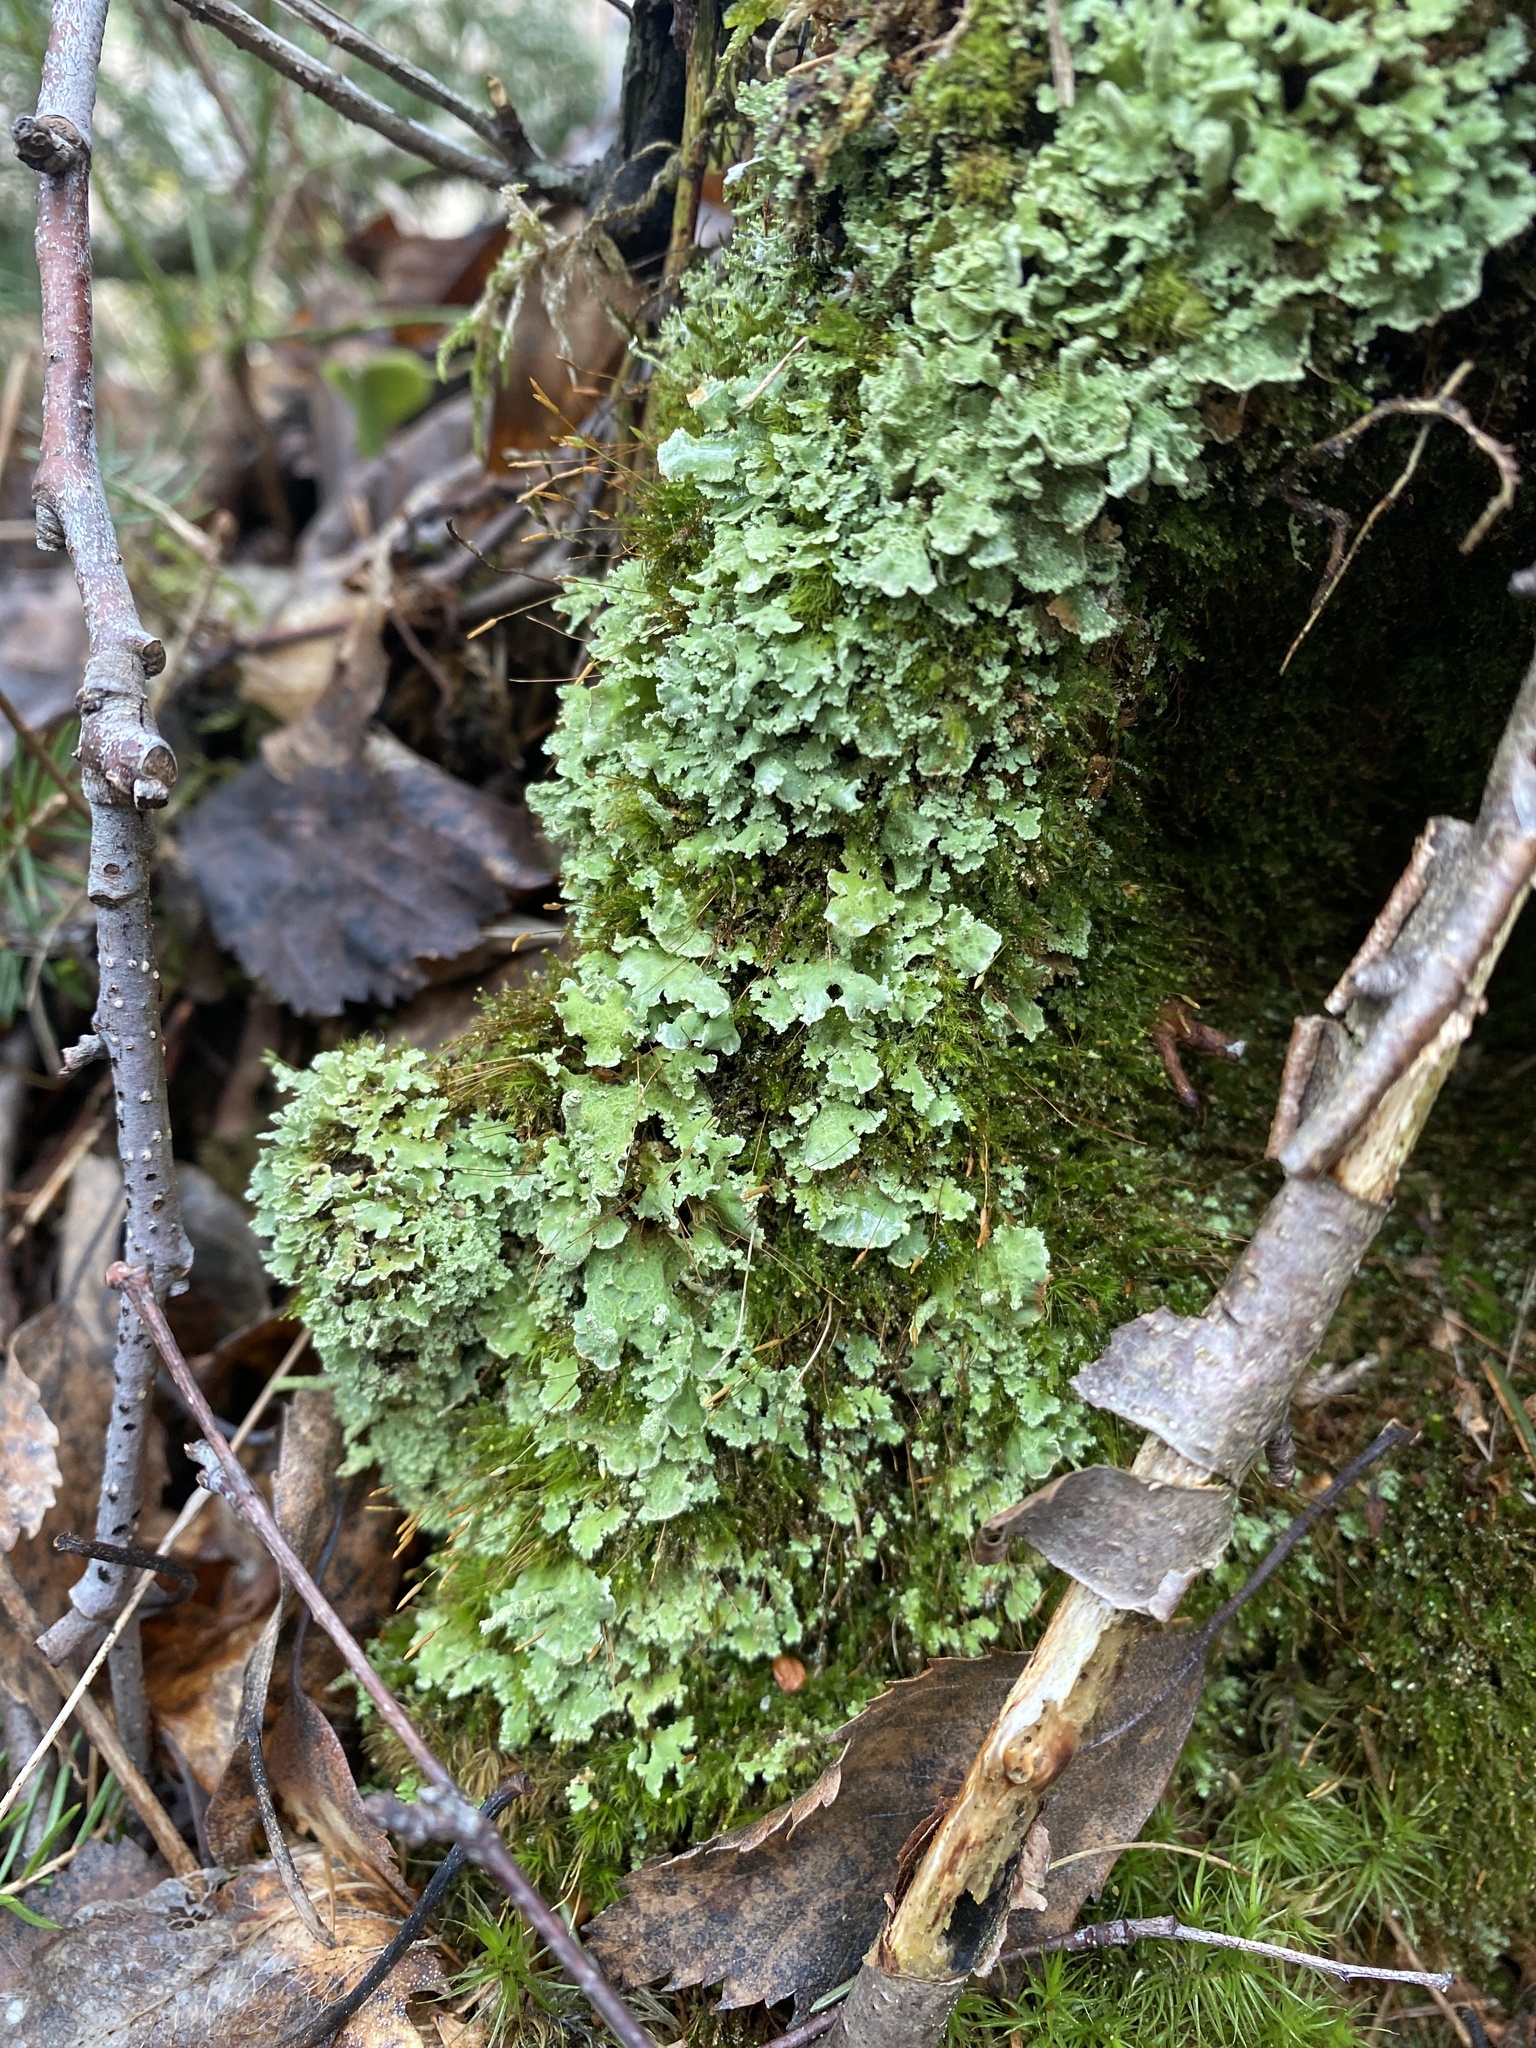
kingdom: Fungi
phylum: Ascomycota
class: Lecanoromycetes
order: Lecanorales
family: Cladoniaceae
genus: Cladonia
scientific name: Cladonia digitata
